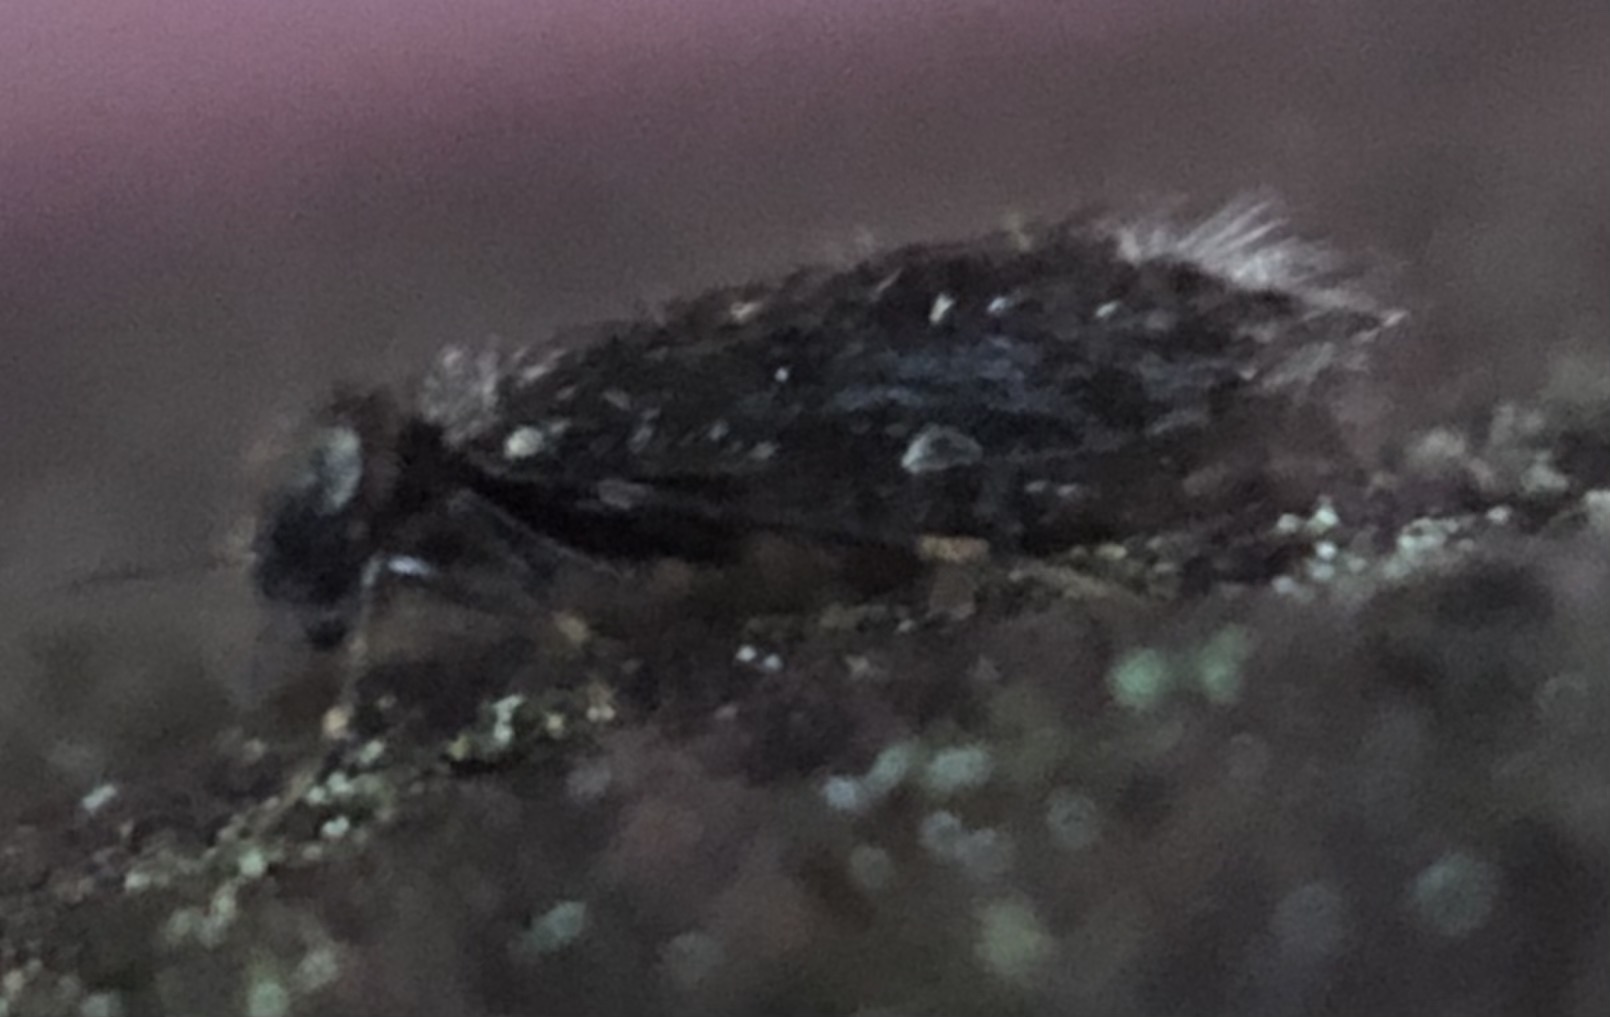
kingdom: Animalia
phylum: Arthropoda
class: Insecta
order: Psocodea
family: Lepidopsocidae
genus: Echmepteryx
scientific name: Echmepteryx hageni
